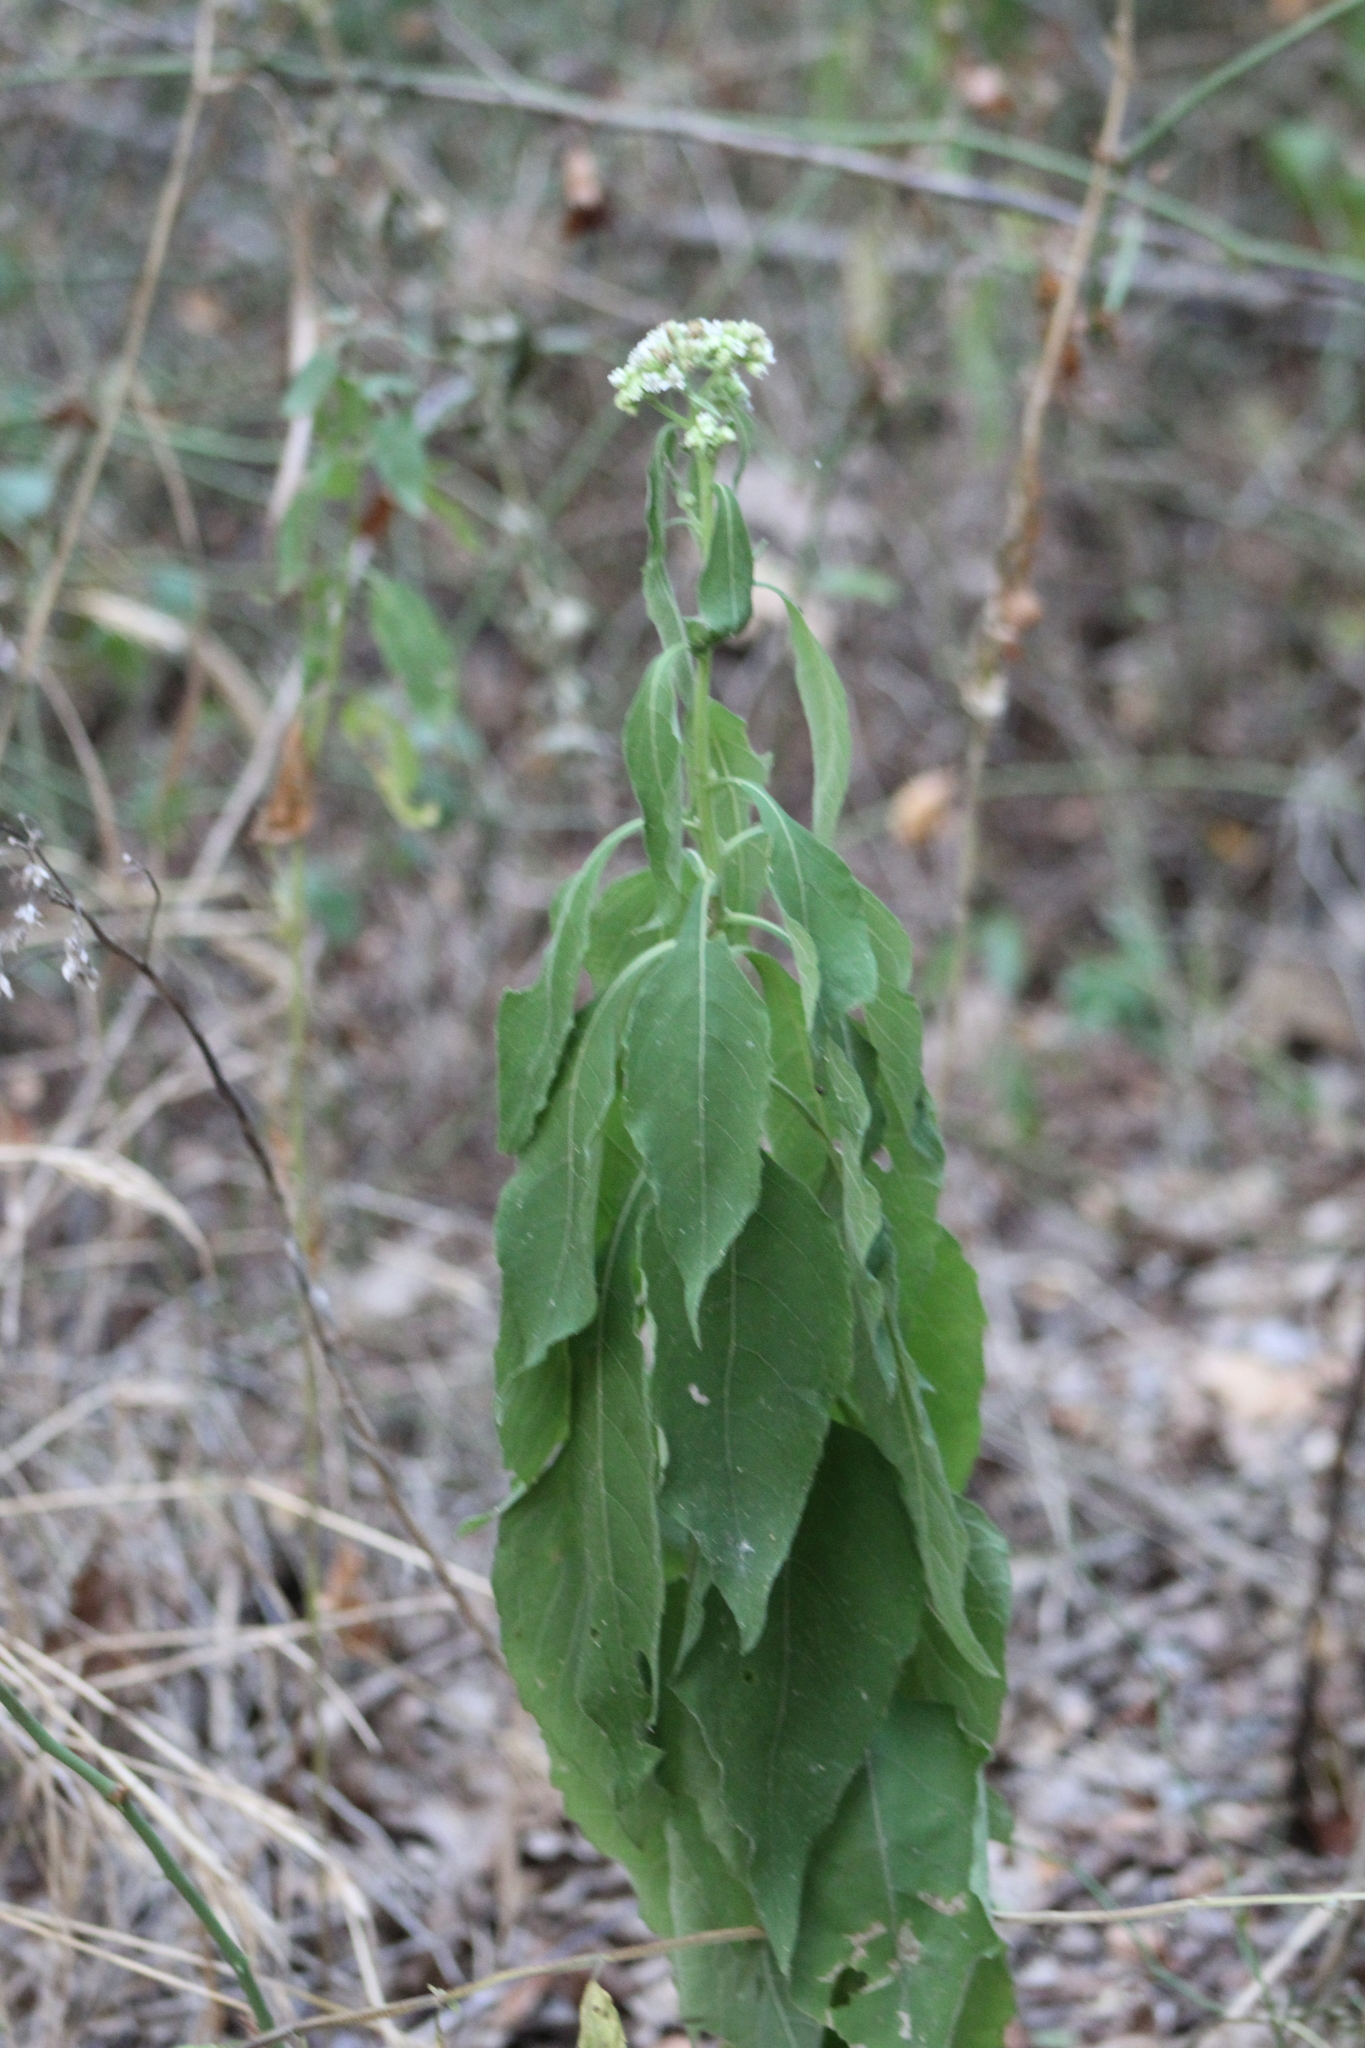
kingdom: Plantae
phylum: Tracheophyta
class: Magnoliopsida
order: Asterales
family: Asteraceae
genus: Verbesina
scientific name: Verbesina virginica
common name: Frostweed
